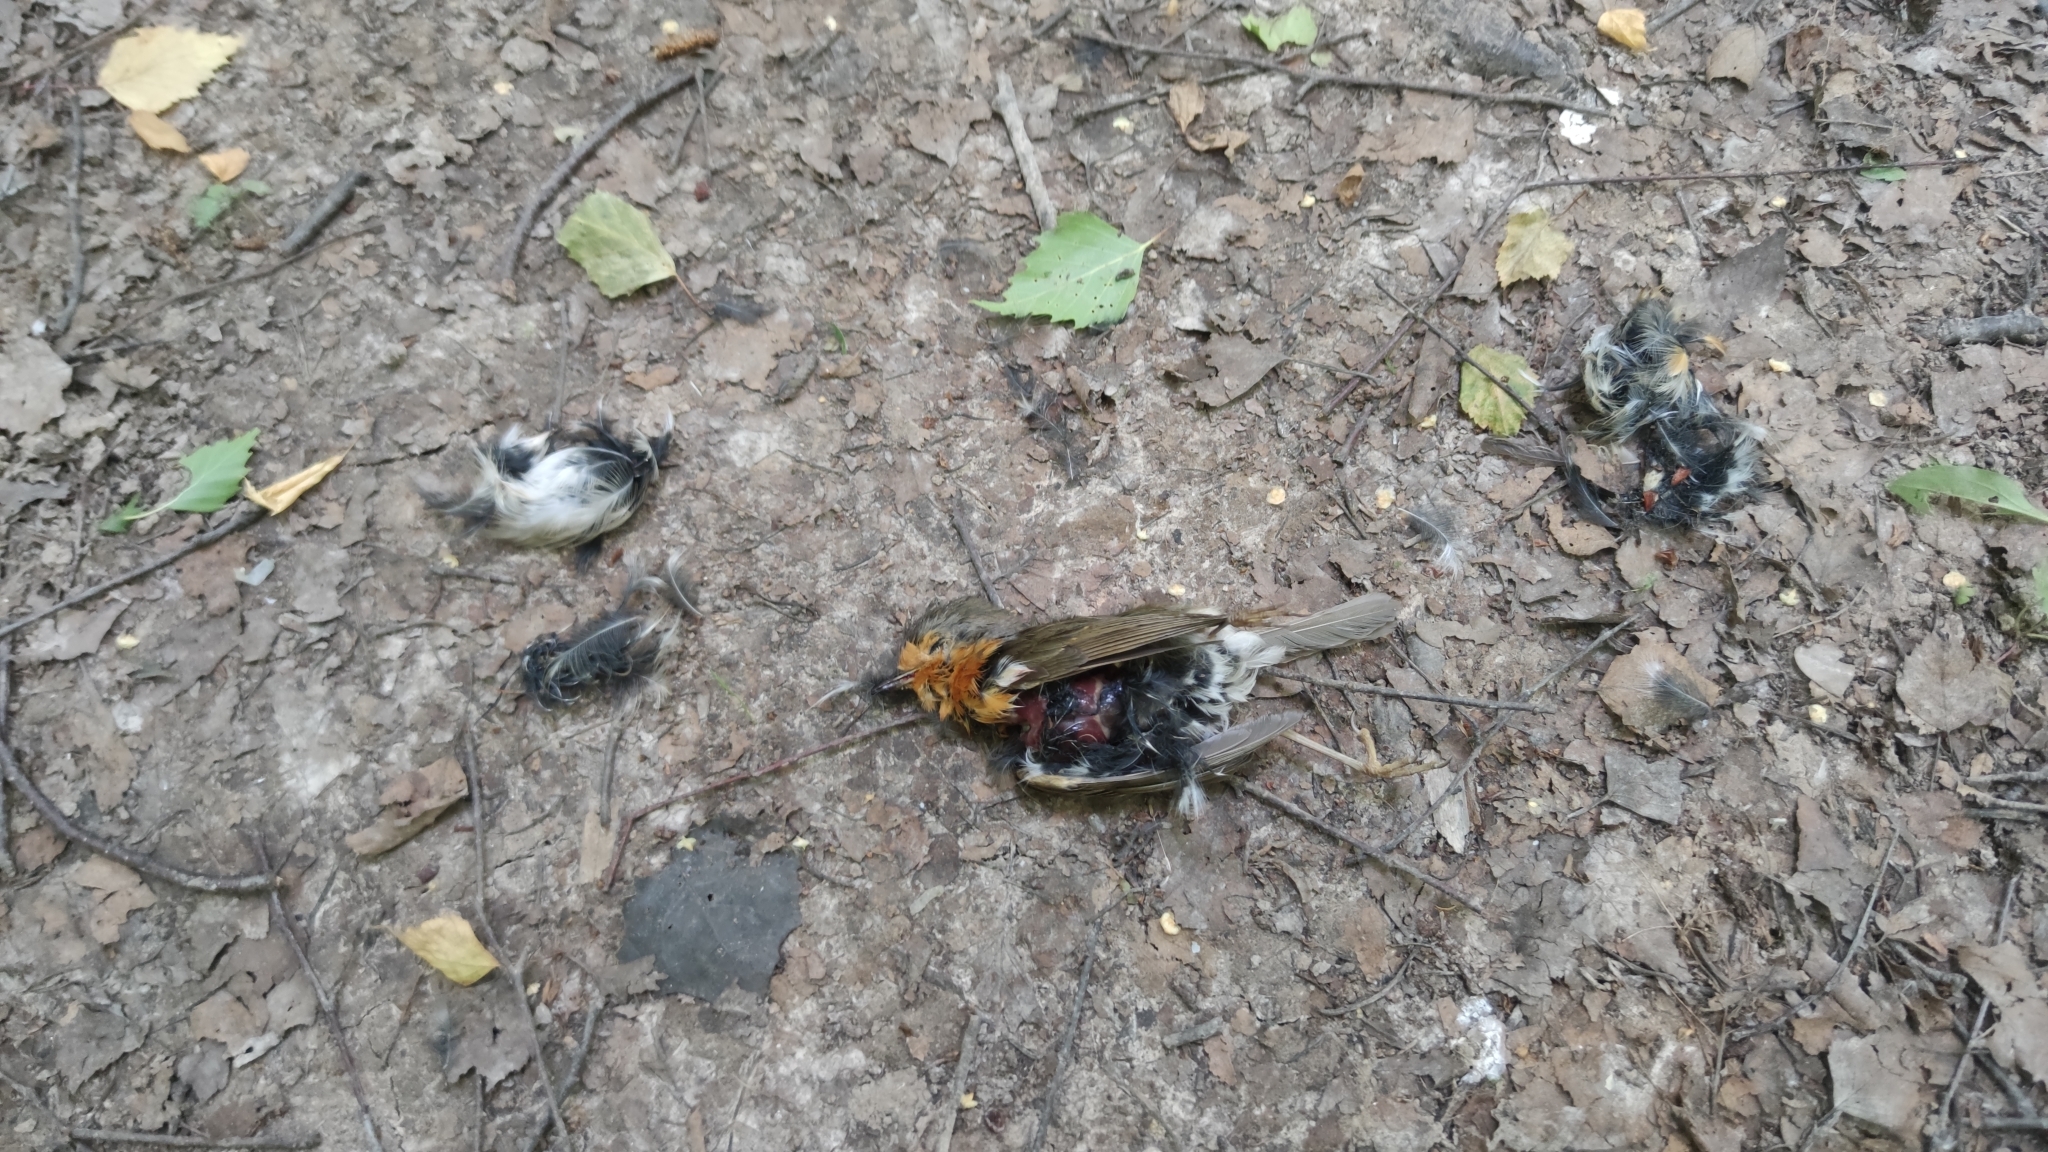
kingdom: Animalia
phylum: Chordata
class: Aves
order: Passeriformes
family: Muscicapidae
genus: Erithacus
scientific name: Erithacus rubecula
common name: European robin
